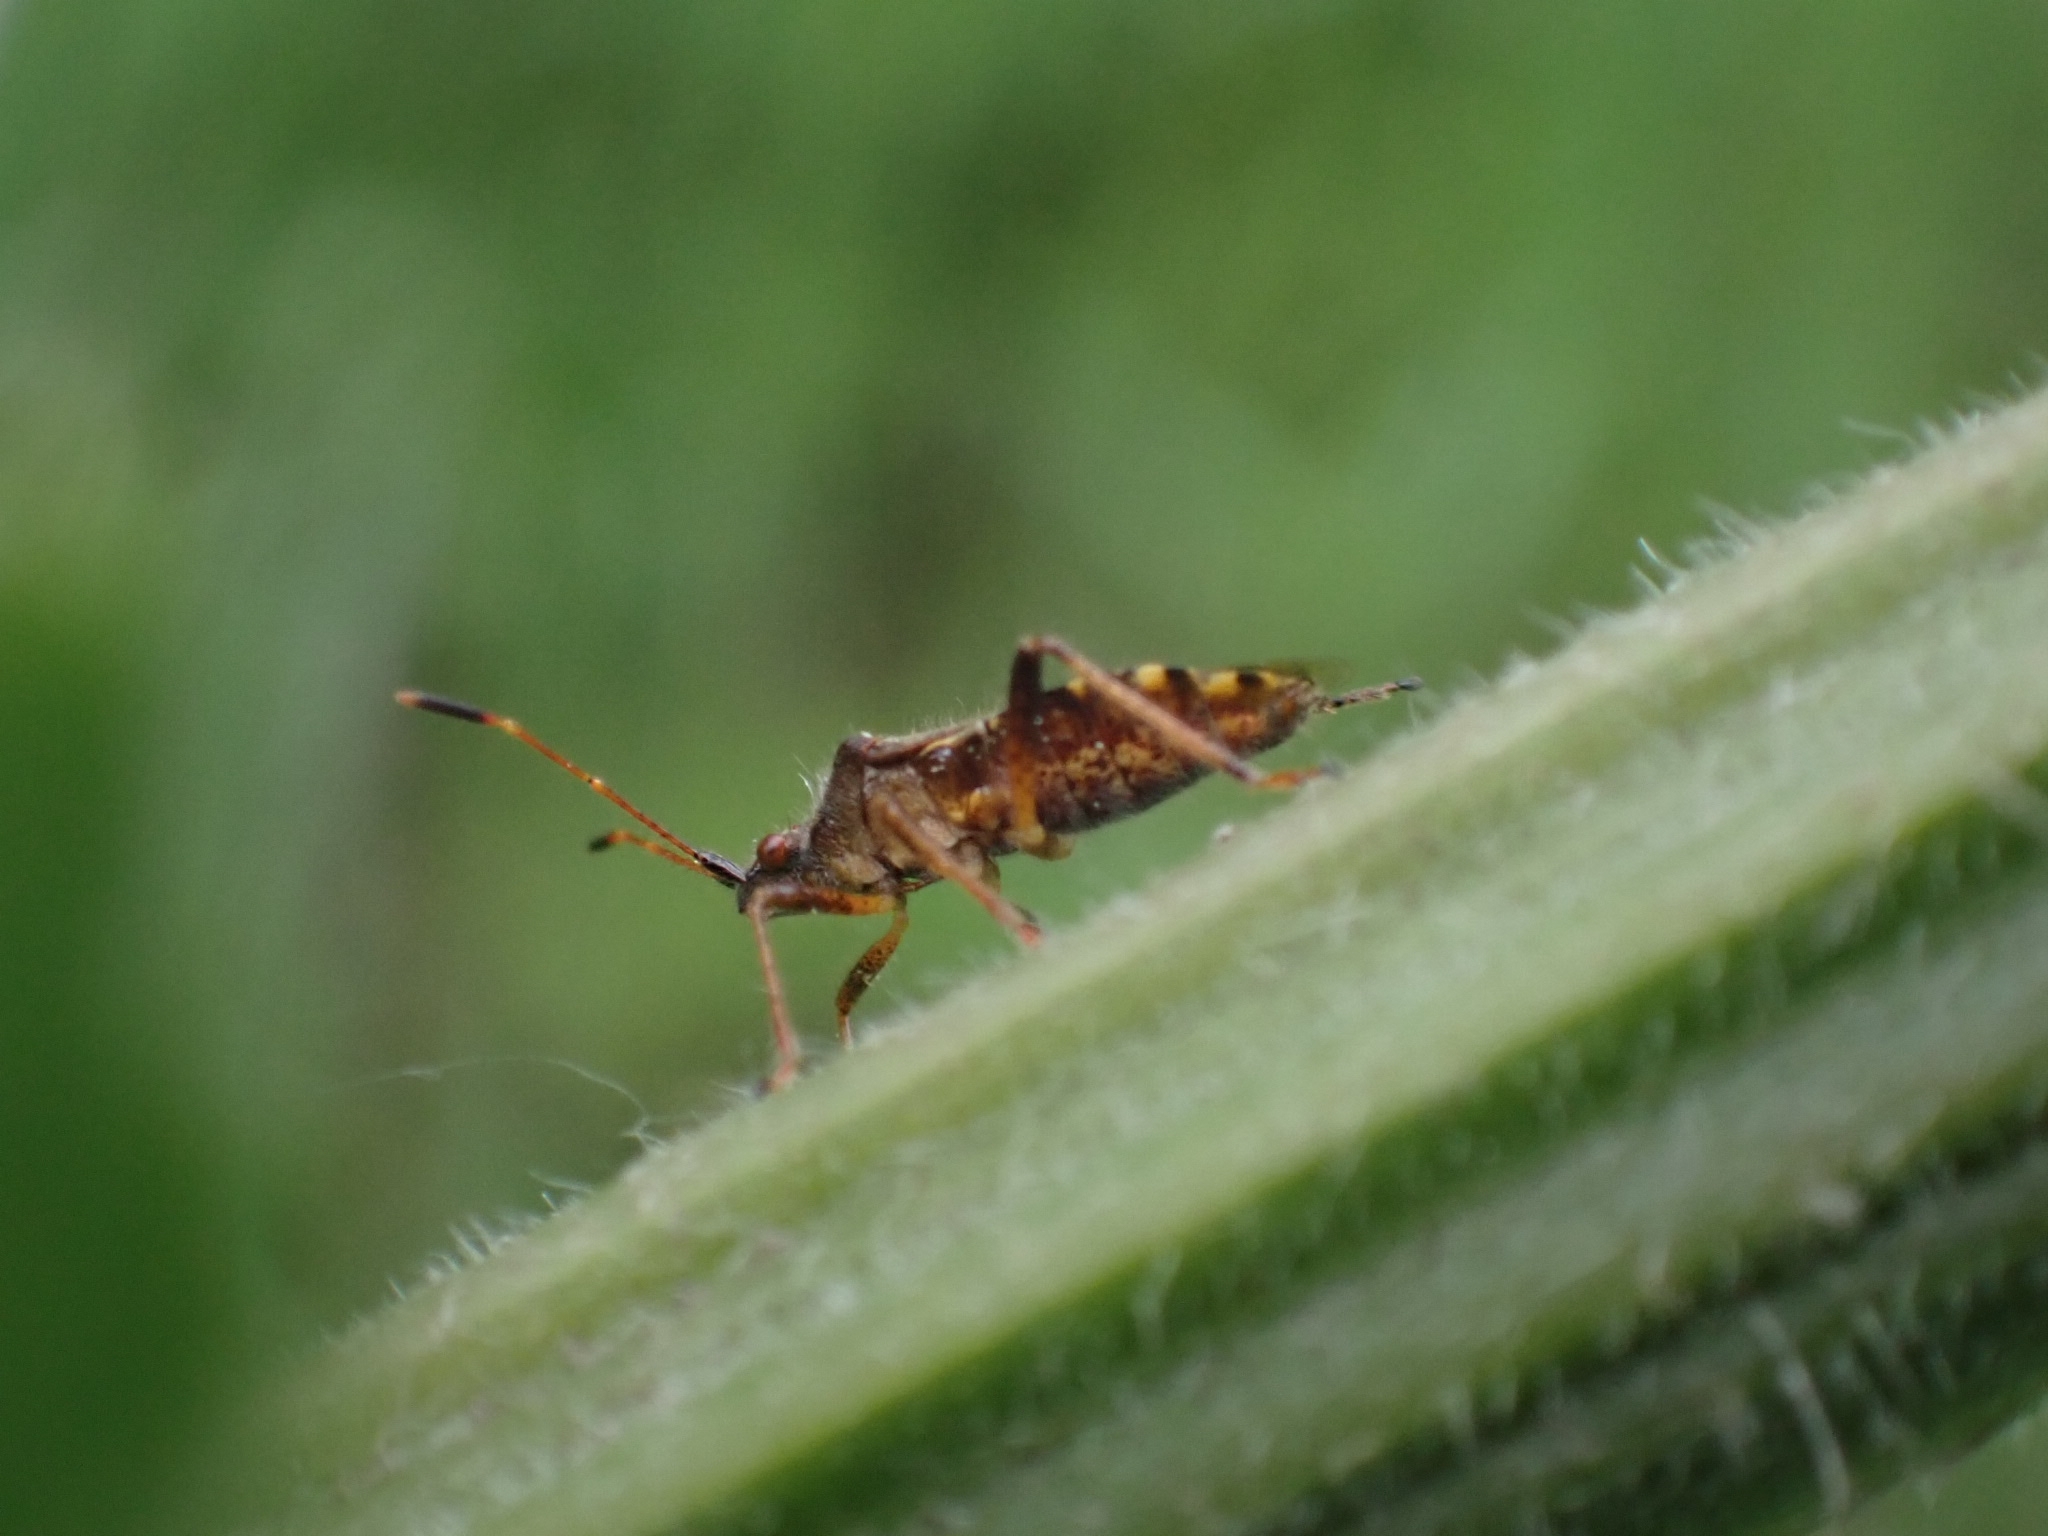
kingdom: Animalia
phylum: Arthropoda
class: Insecta
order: Hemiptera
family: Rhopalidae
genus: Rhopalus
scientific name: Rhopalus latus
